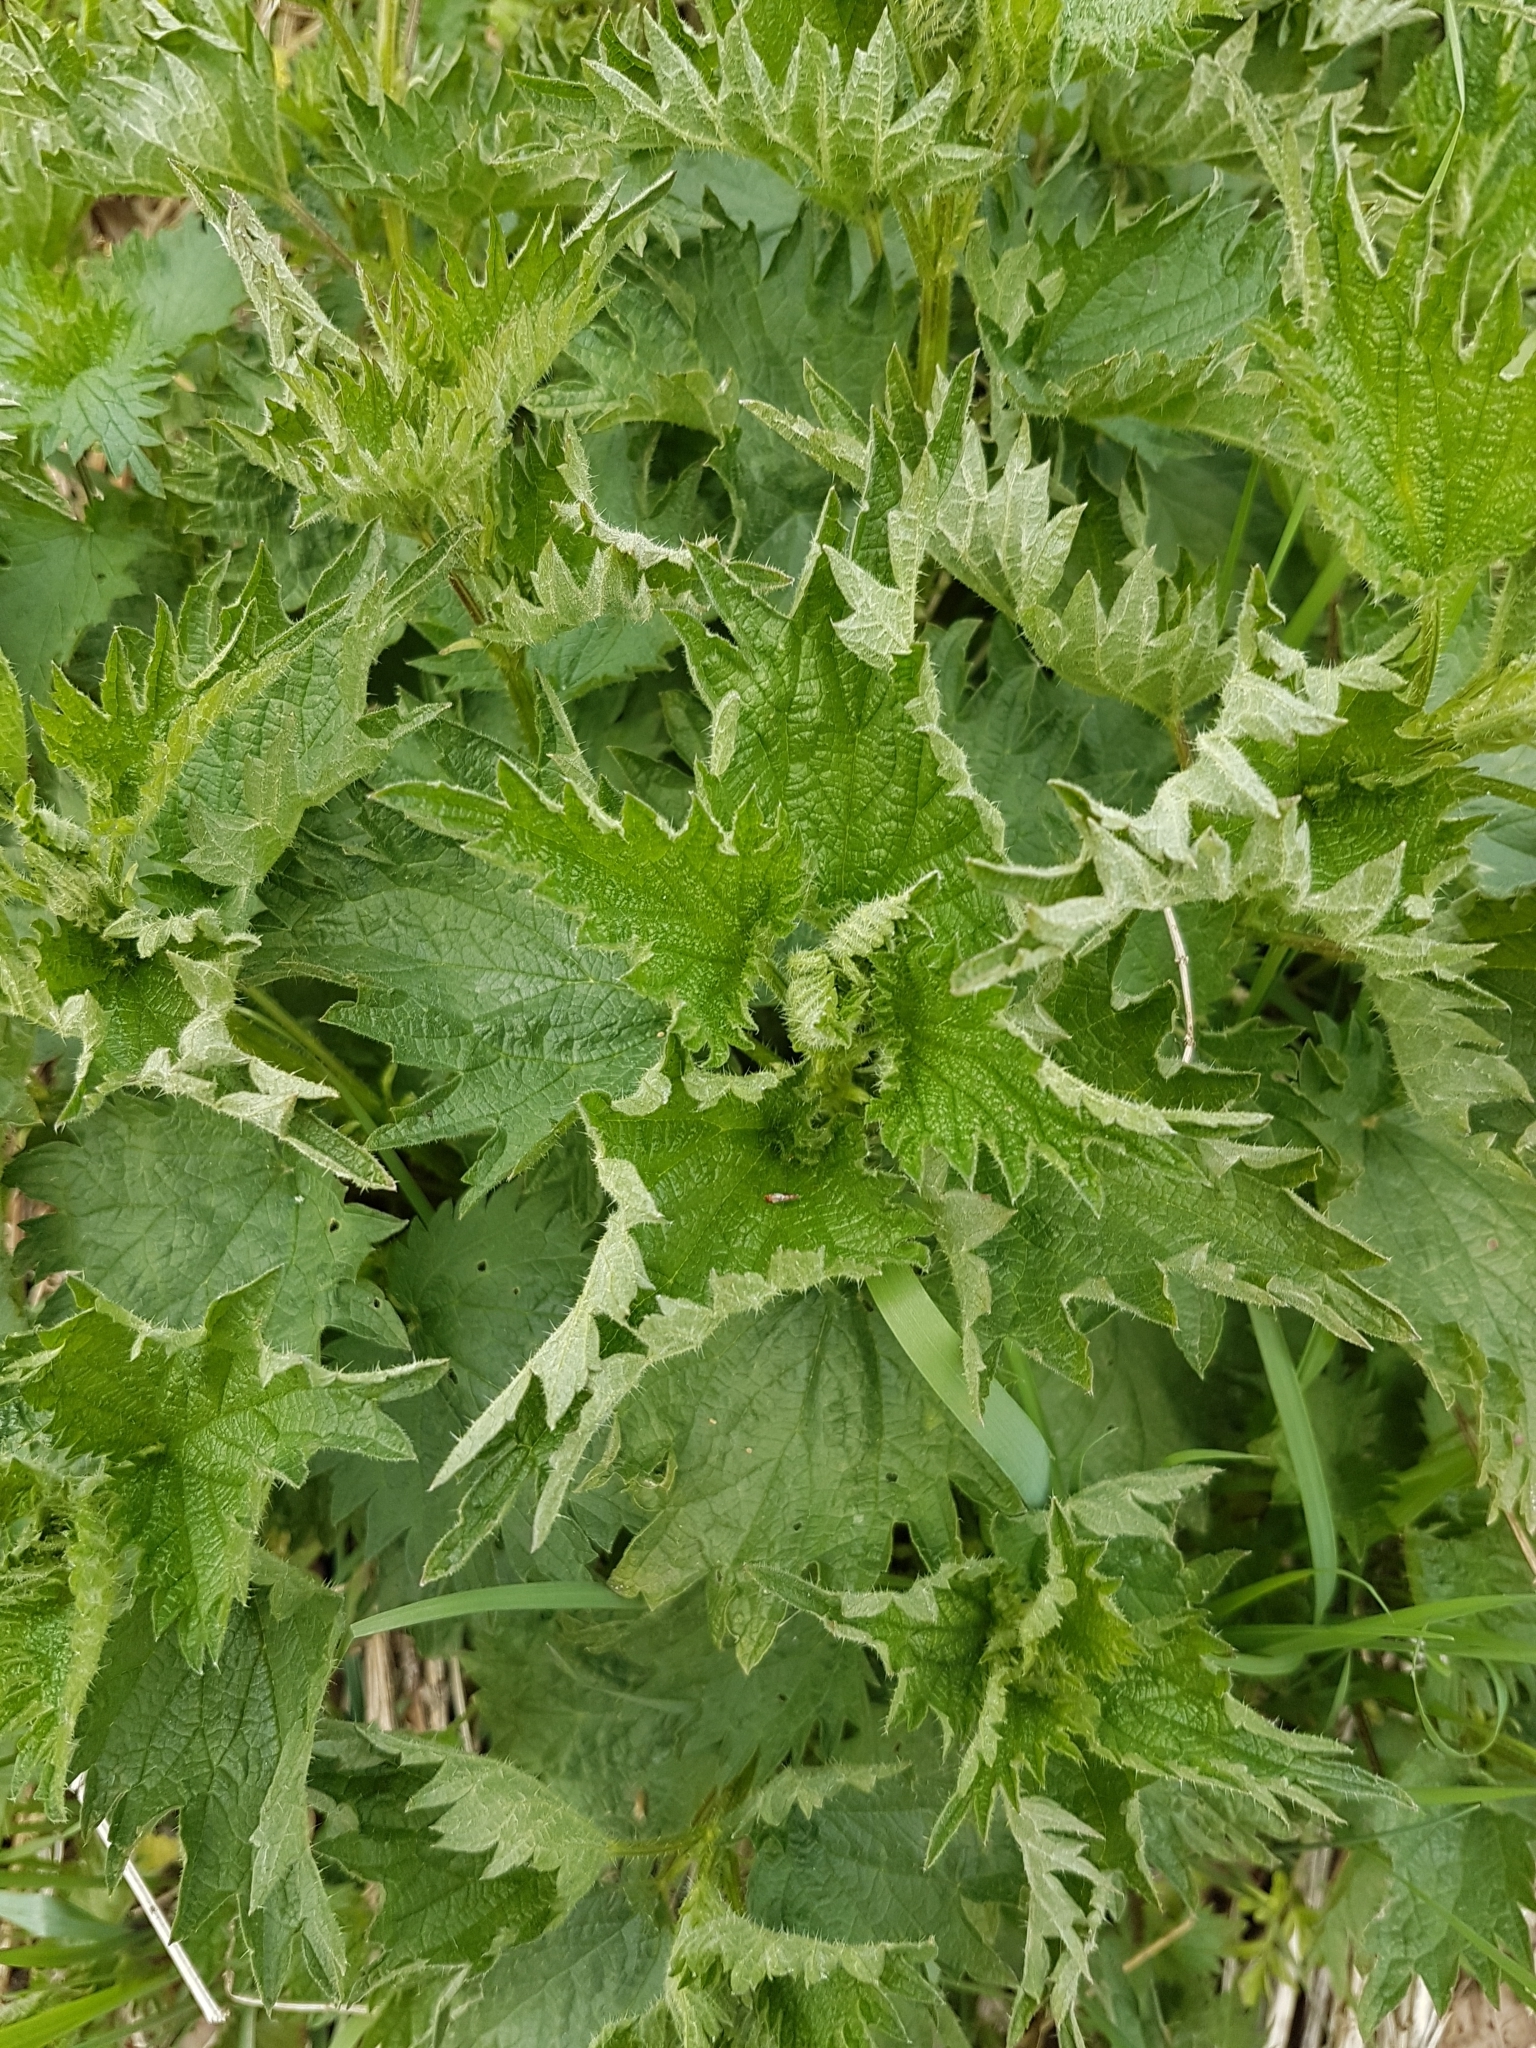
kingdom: Plantae
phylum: Tracheophyta
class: Magnoliopsida
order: Rosales
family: Urticaceae
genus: Urtica
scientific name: Urtica dioica
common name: Common nettle
